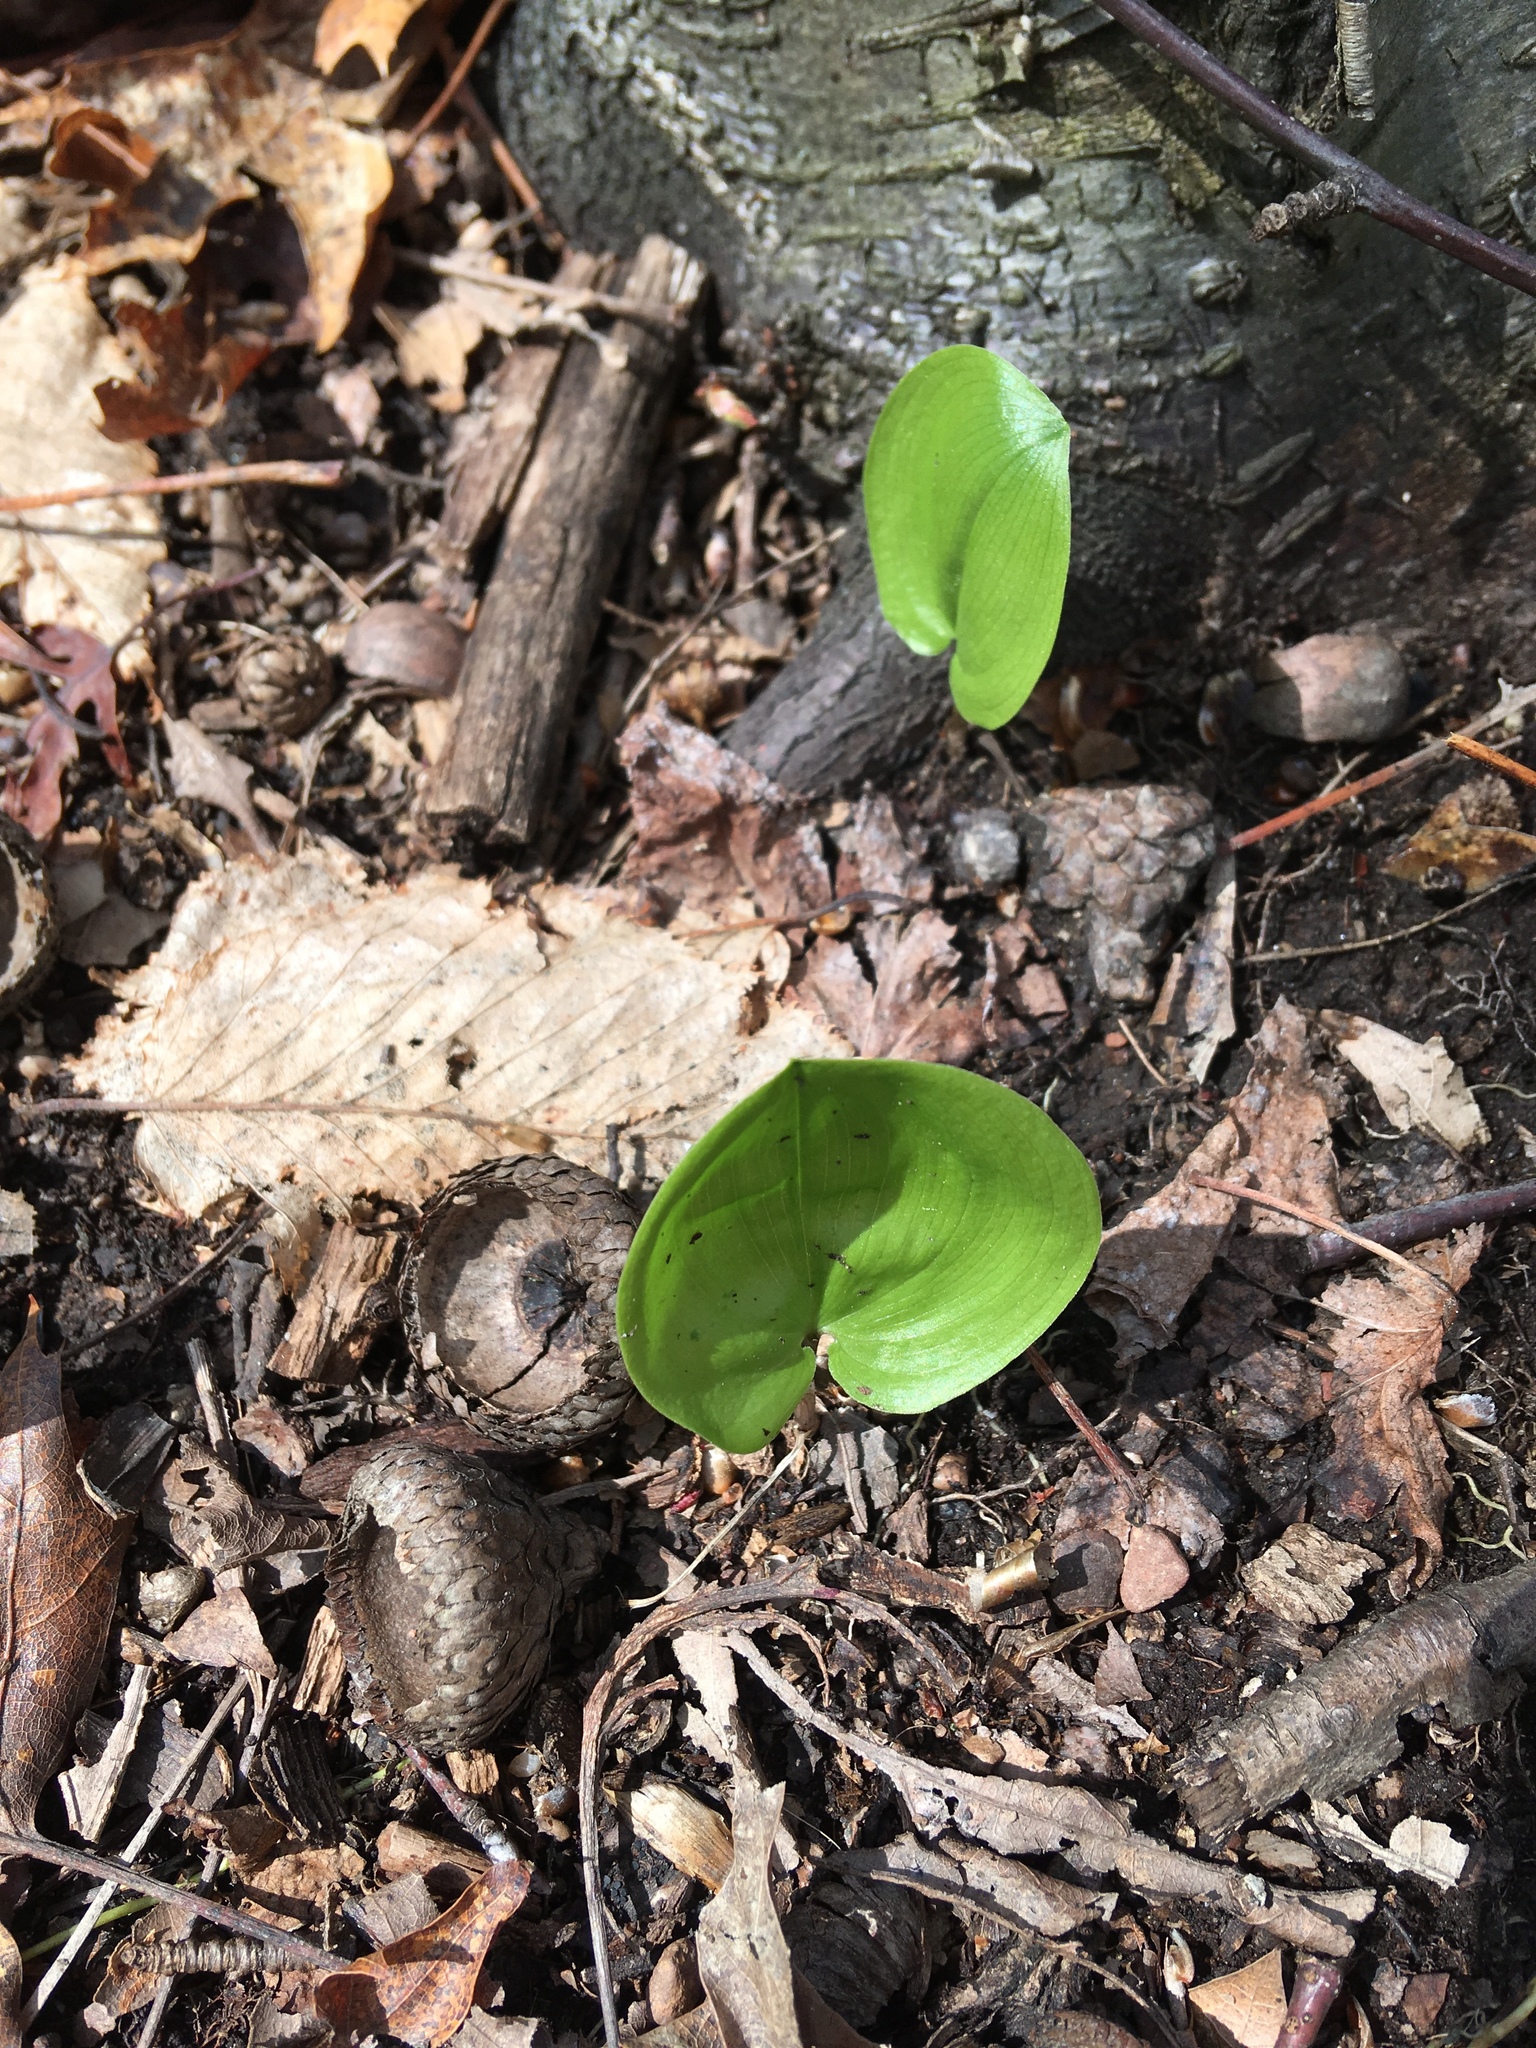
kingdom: Plantae
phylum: Tracheophyta
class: Liliopsida
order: Asparagales
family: Asparagaceae
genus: Maianthemum
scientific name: Maianthemum canadense
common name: False lily-of-the-valley
